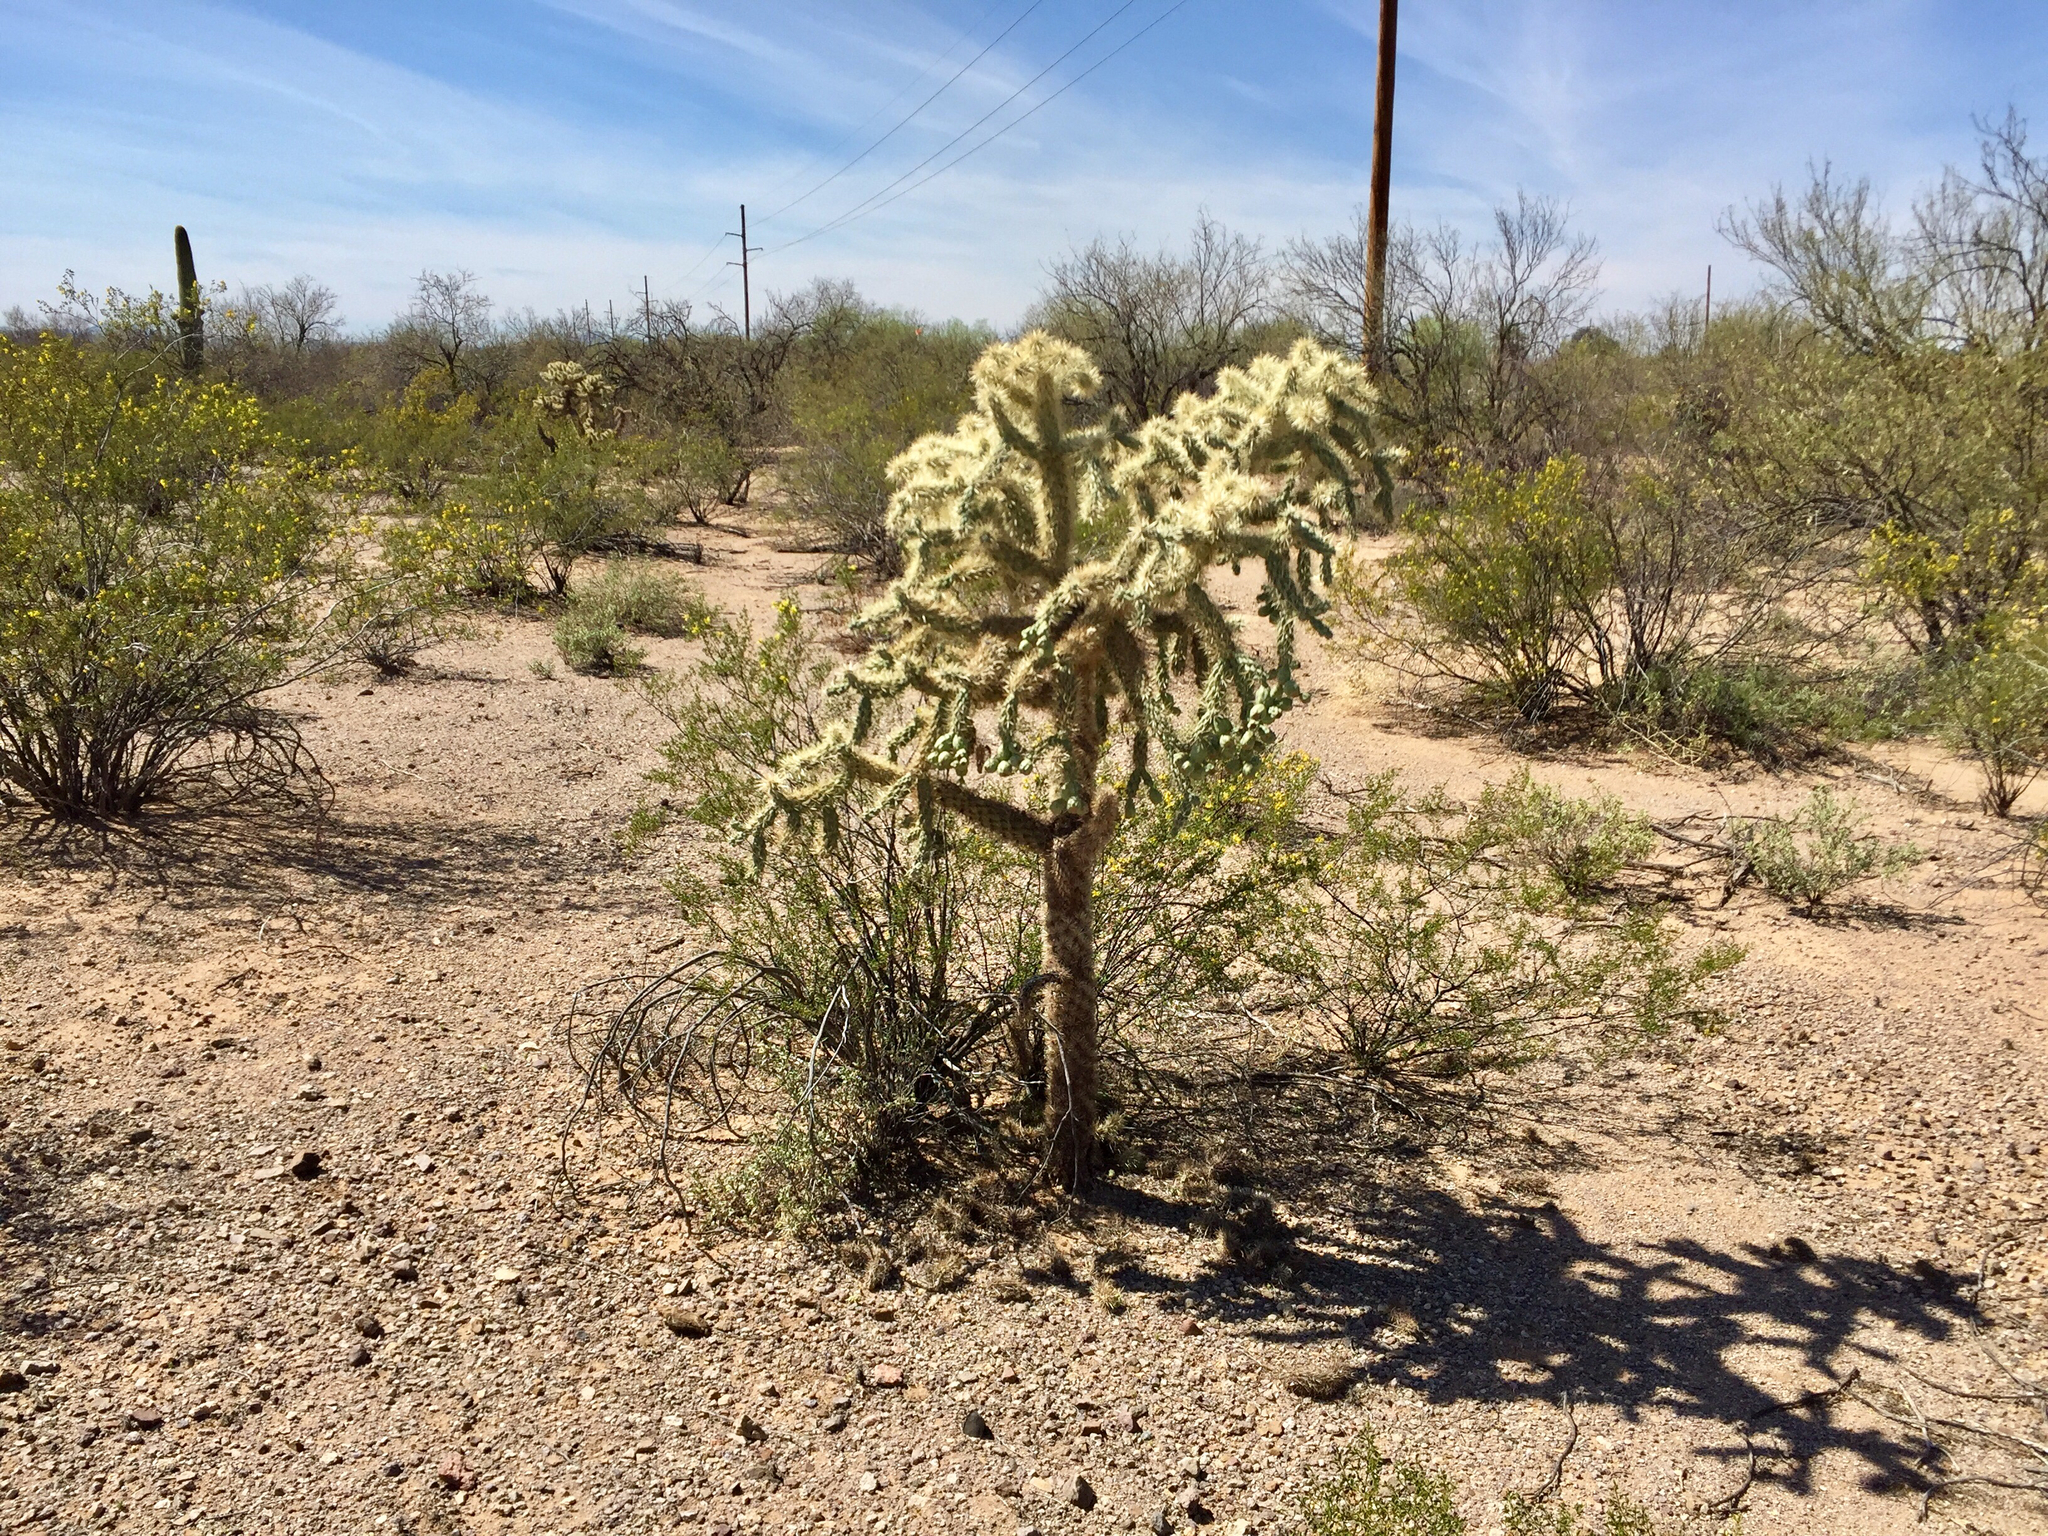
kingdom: Plantae
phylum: Tracheophyta
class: Magnoliopsida
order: Caryophyllales
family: Cactaceae
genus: Cylindropuntia
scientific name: Cylindropuntia fulgida
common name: Jumping cholla
